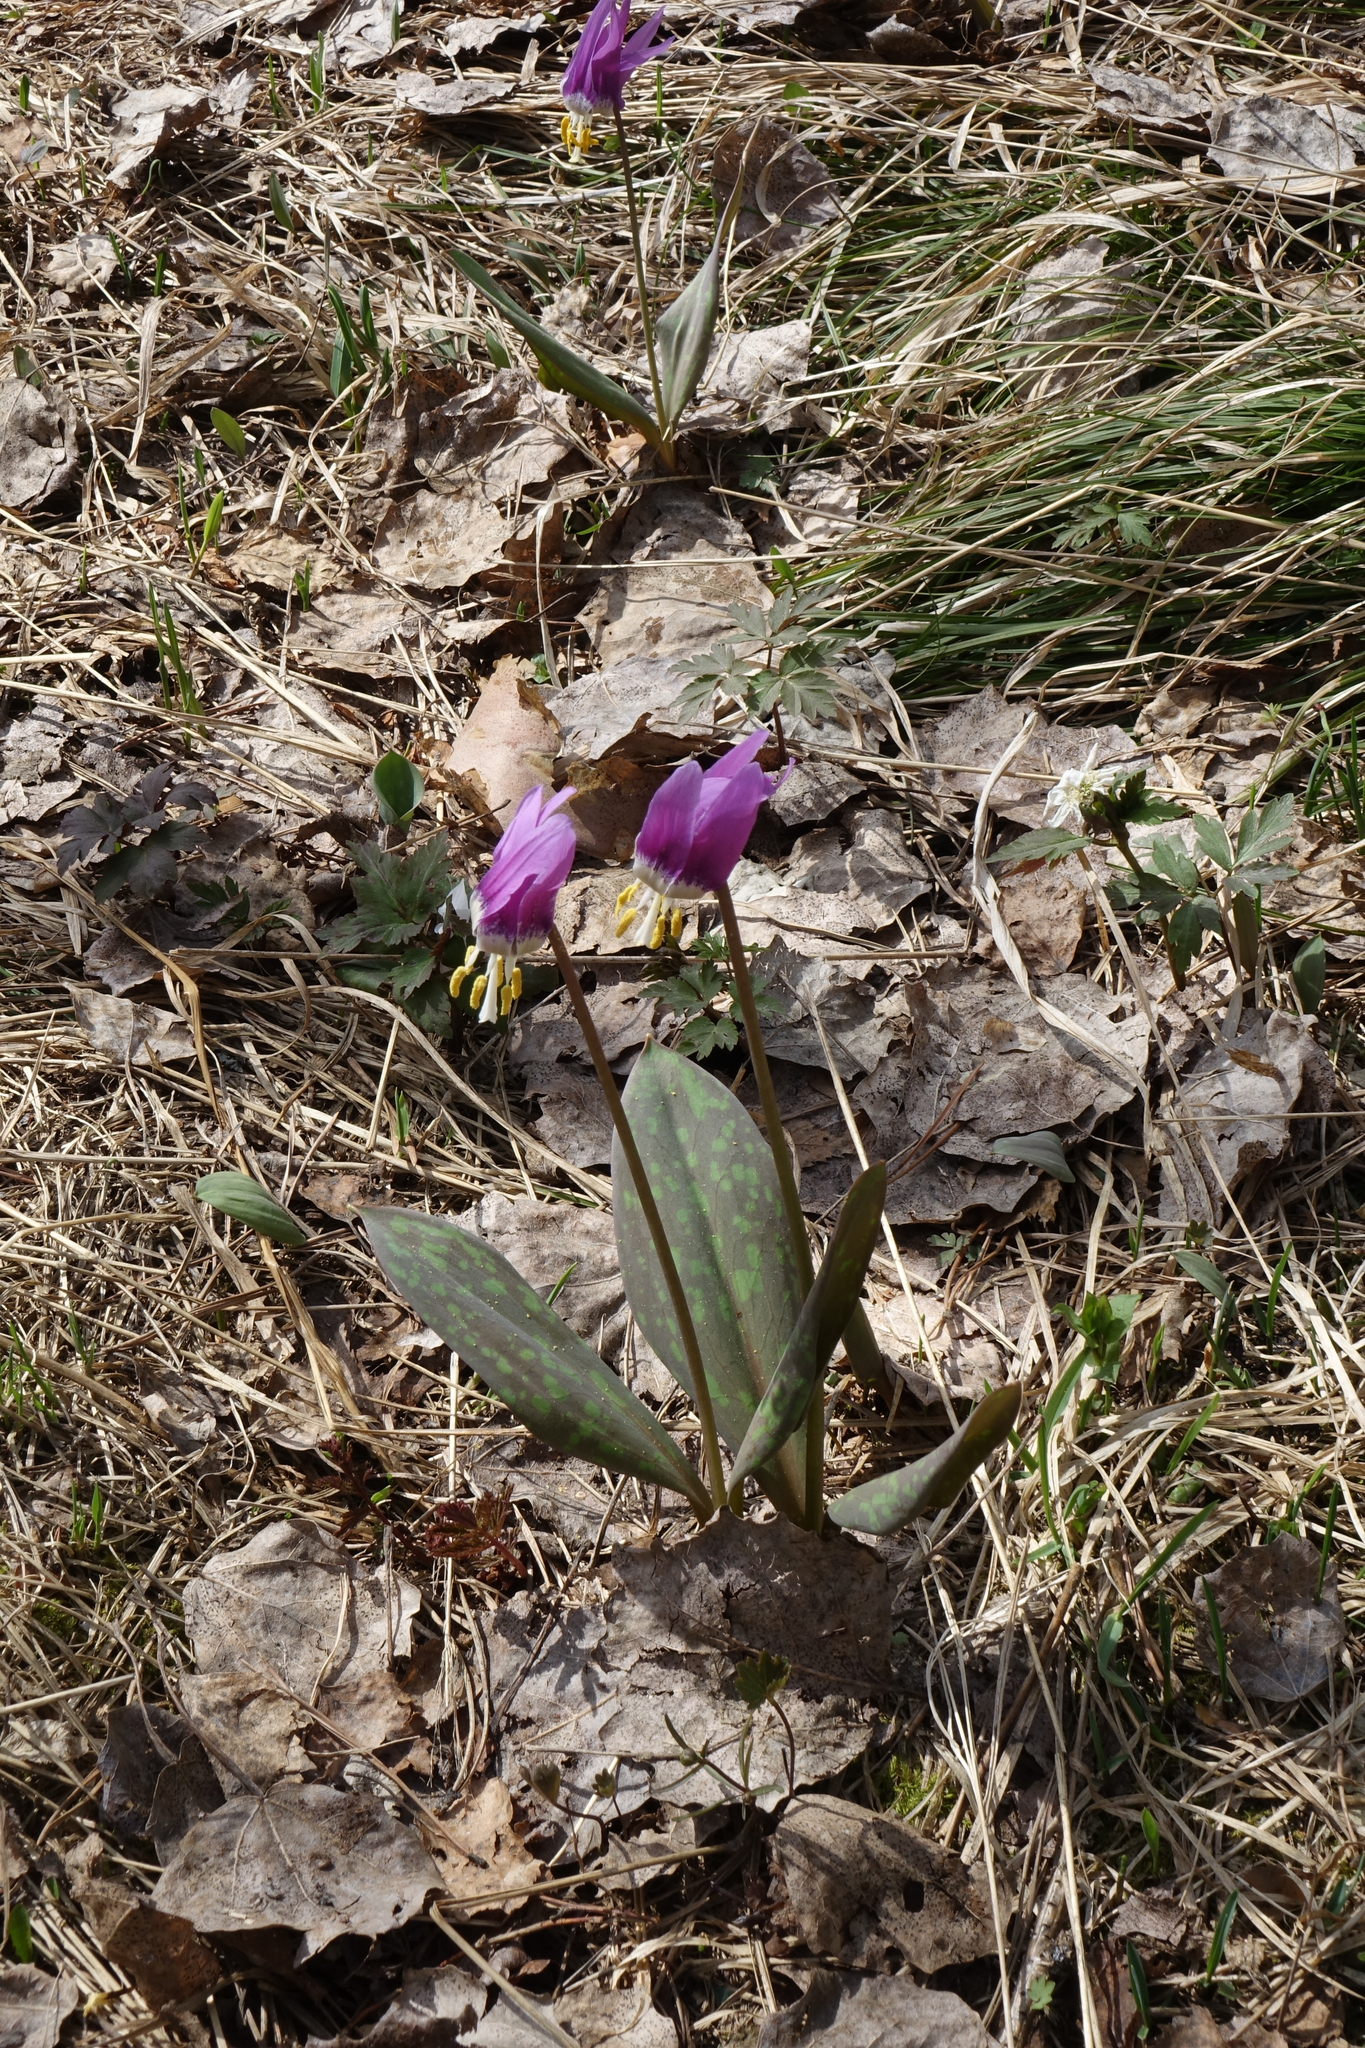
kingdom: Plantae
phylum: Tracheophyta
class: Liliopsida
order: Liliales
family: Liliaceae
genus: Erythronium
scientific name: Erythronium sibiricum
